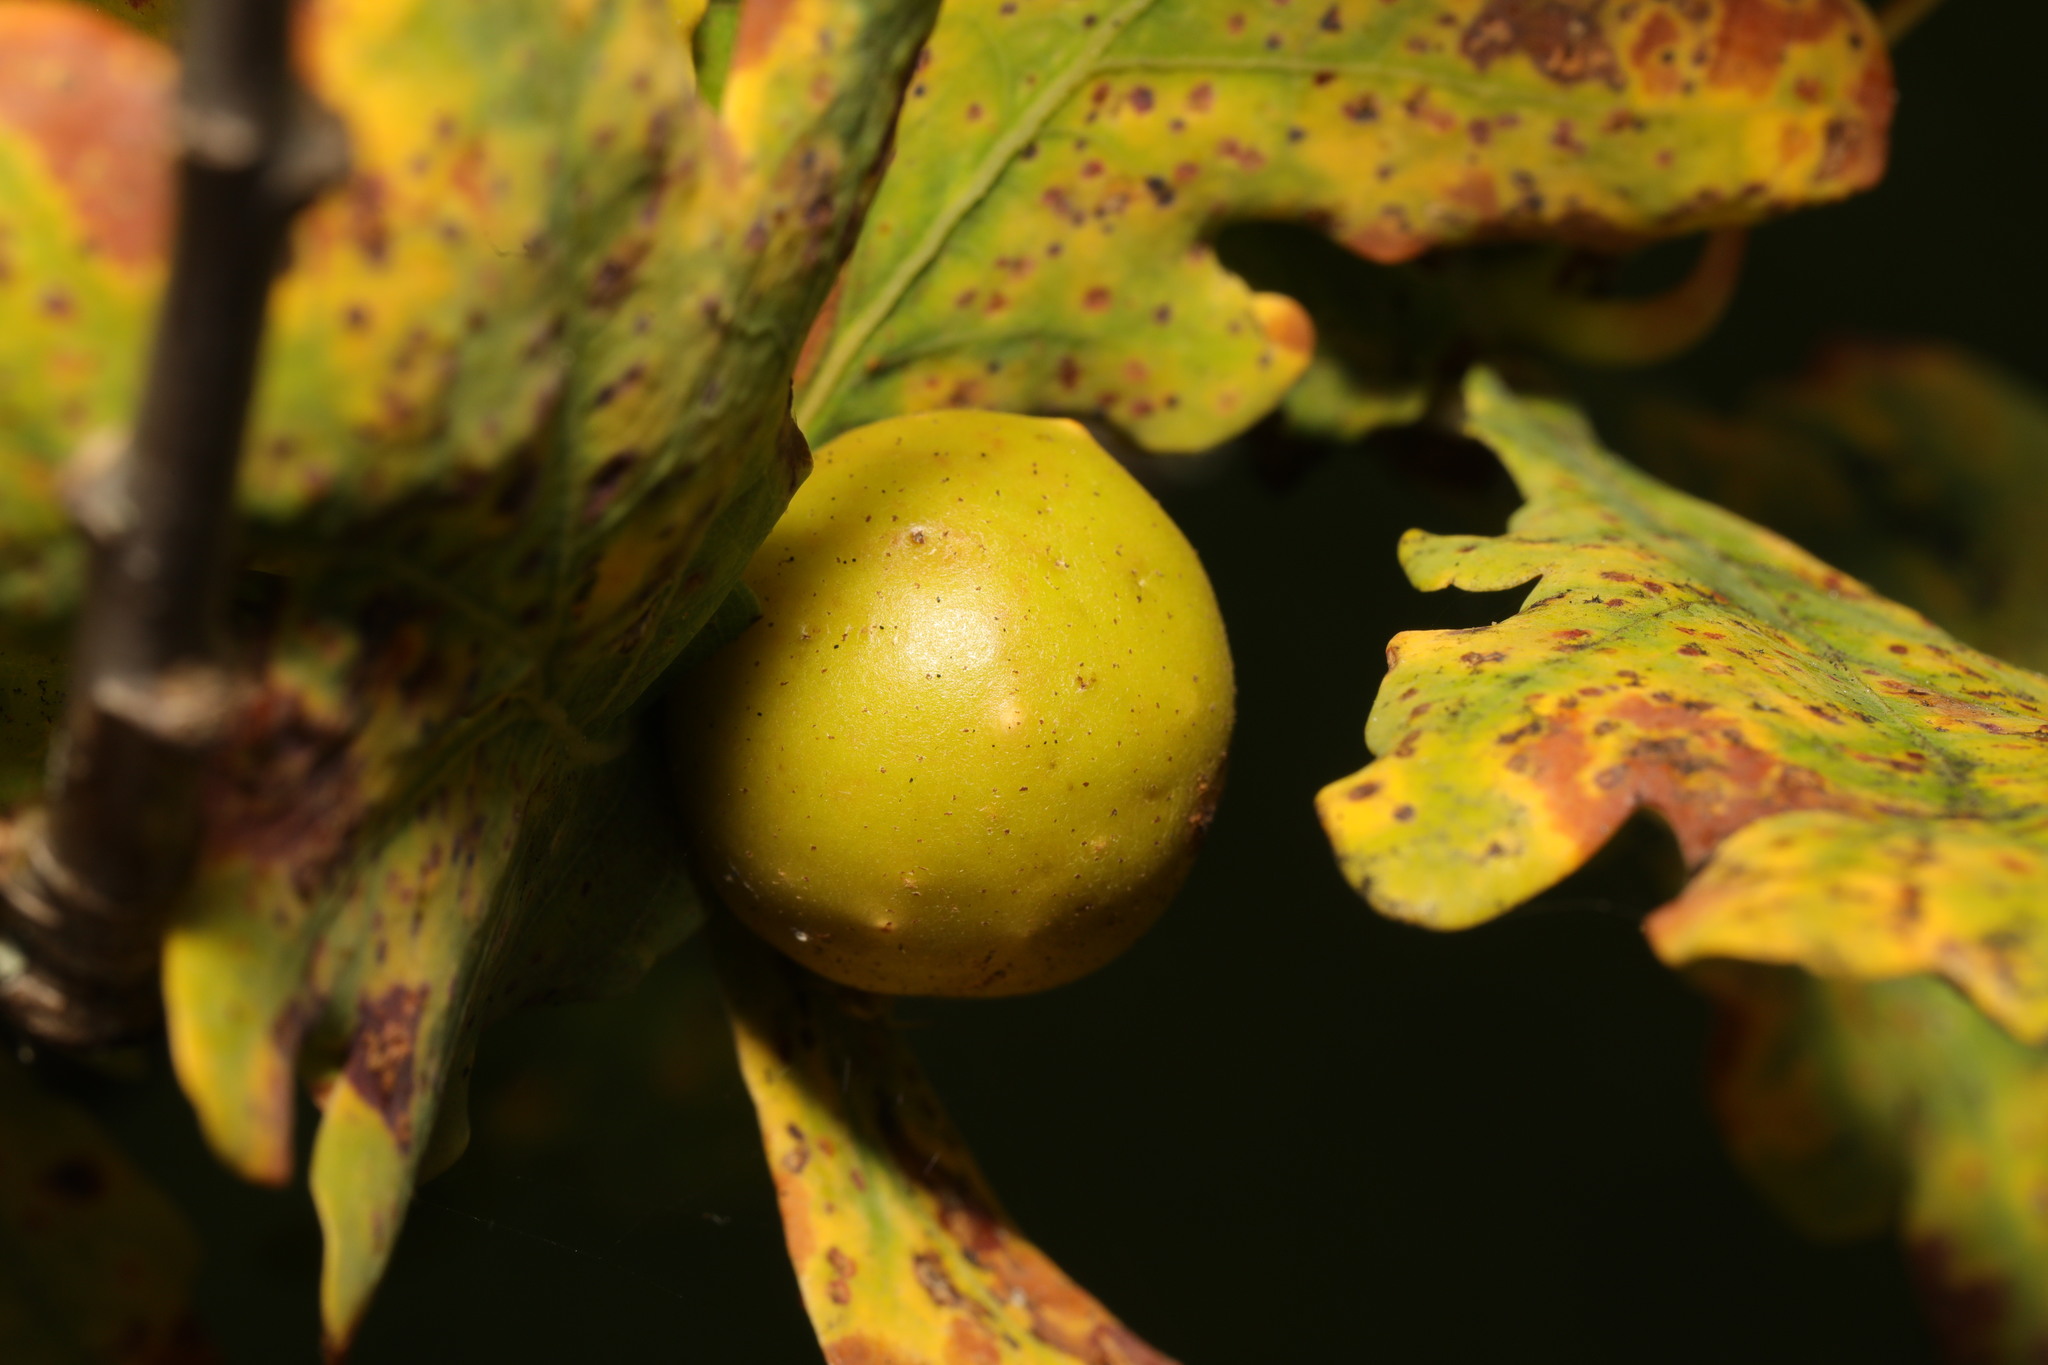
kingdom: Animalia
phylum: Arthropoda
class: Insecta
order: Hymenoptera
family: Cynipidae
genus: Andricus
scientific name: Andricus kollari
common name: Marble gall
